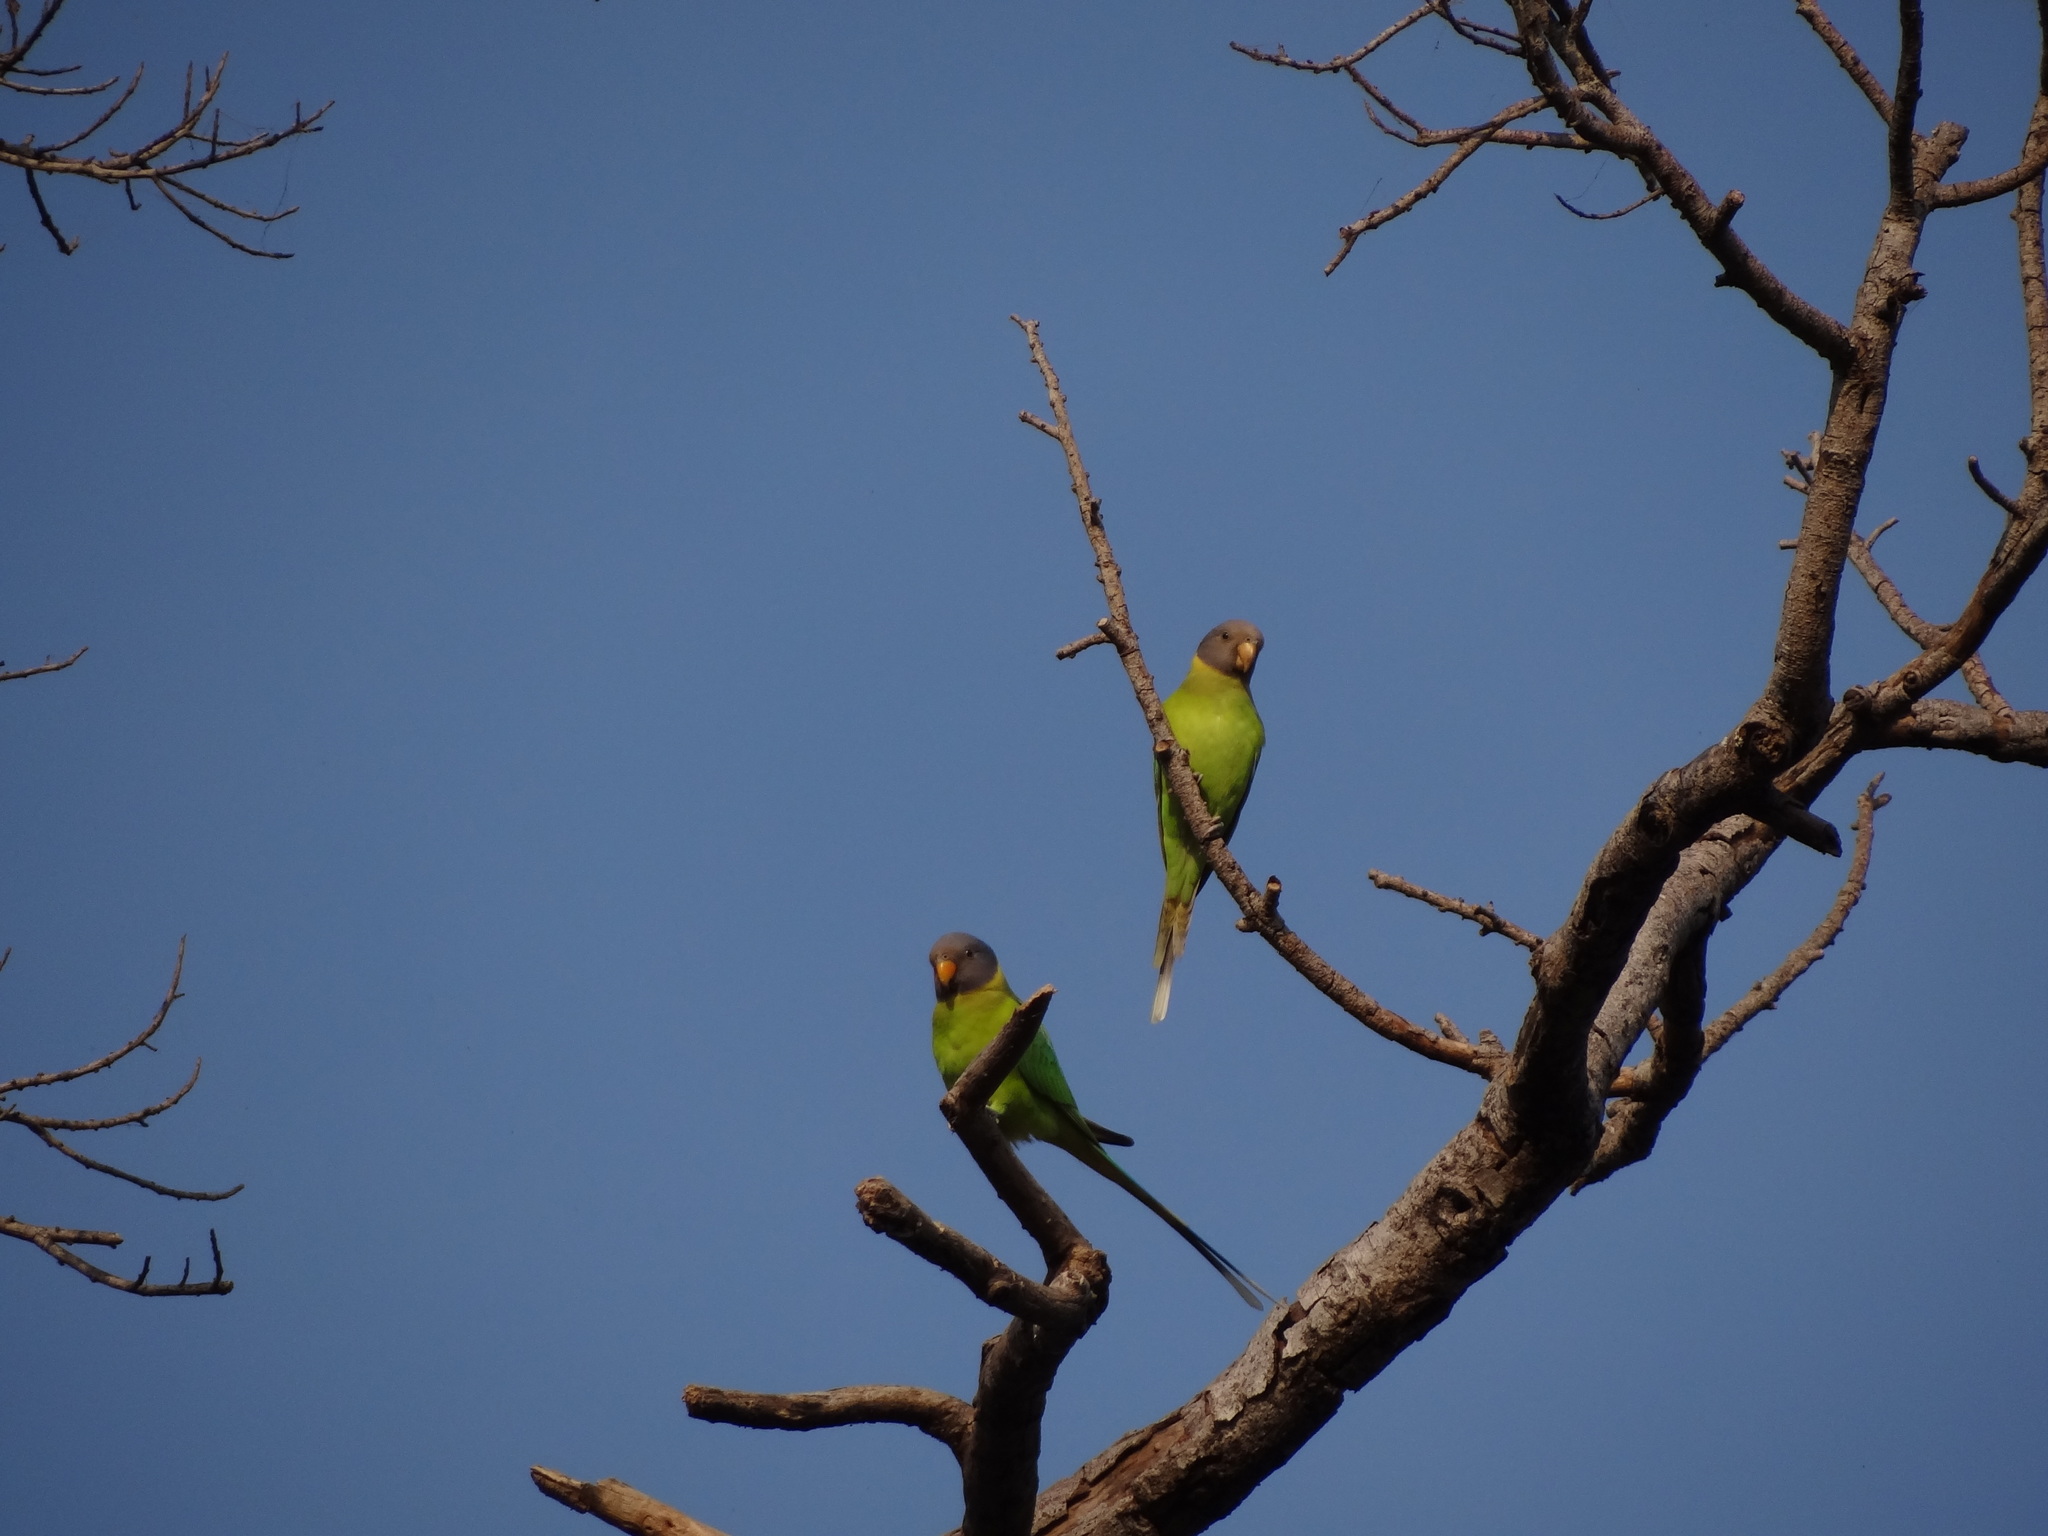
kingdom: Animalia
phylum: Chordata
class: Aves
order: Psittaciformes
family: Psittacidae
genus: Psittacula
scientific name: Psittacula cyanocephala
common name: Plum-headed parakeet
